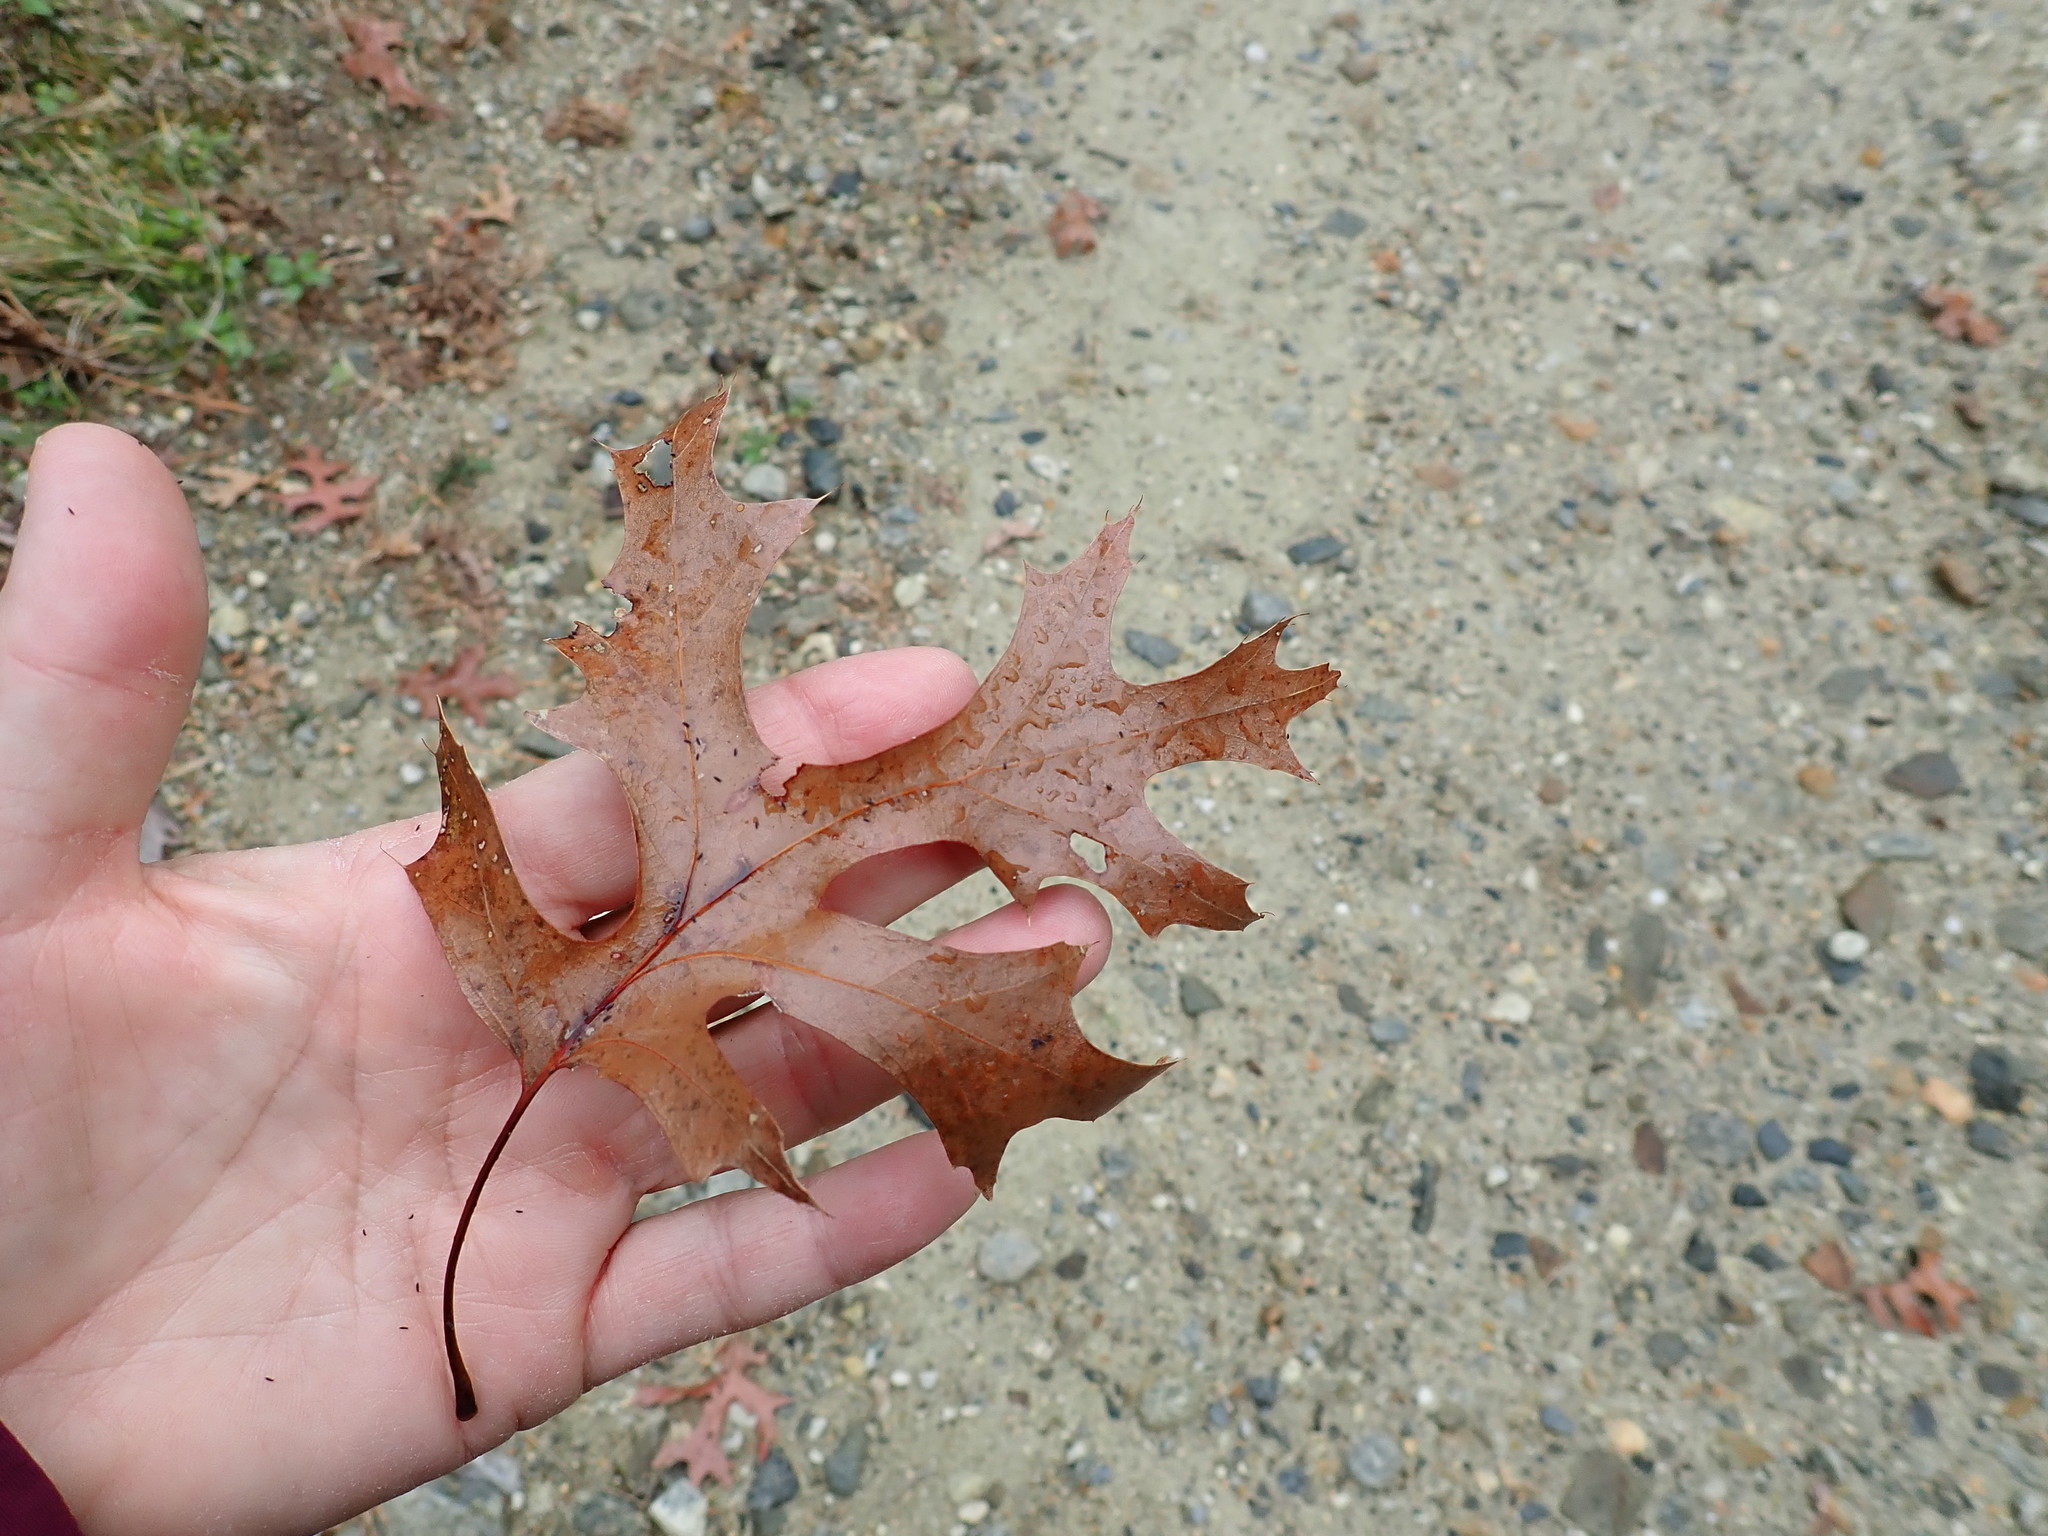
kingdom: Plantae
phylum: Tracheophyta
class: Magnoliopsida
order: Fagales
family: Fagaceae
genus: Quercus
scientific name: Quercus coccinea
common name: Scarlet oak
